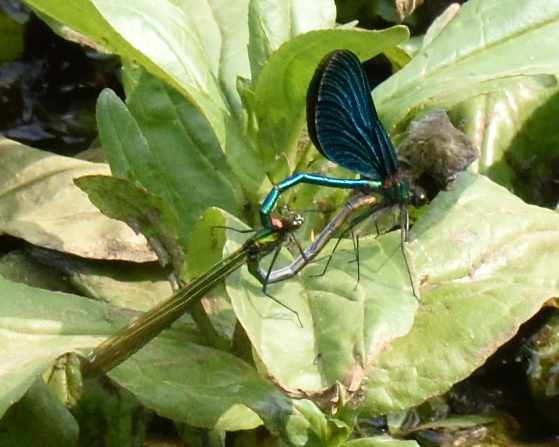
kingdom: Animalia
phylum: Arthropoda
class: Insecta
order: Odonata
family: Calopterygidae
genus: Calopteryx
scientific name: Calopteryx virgo
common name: Beautiful demoiselle
